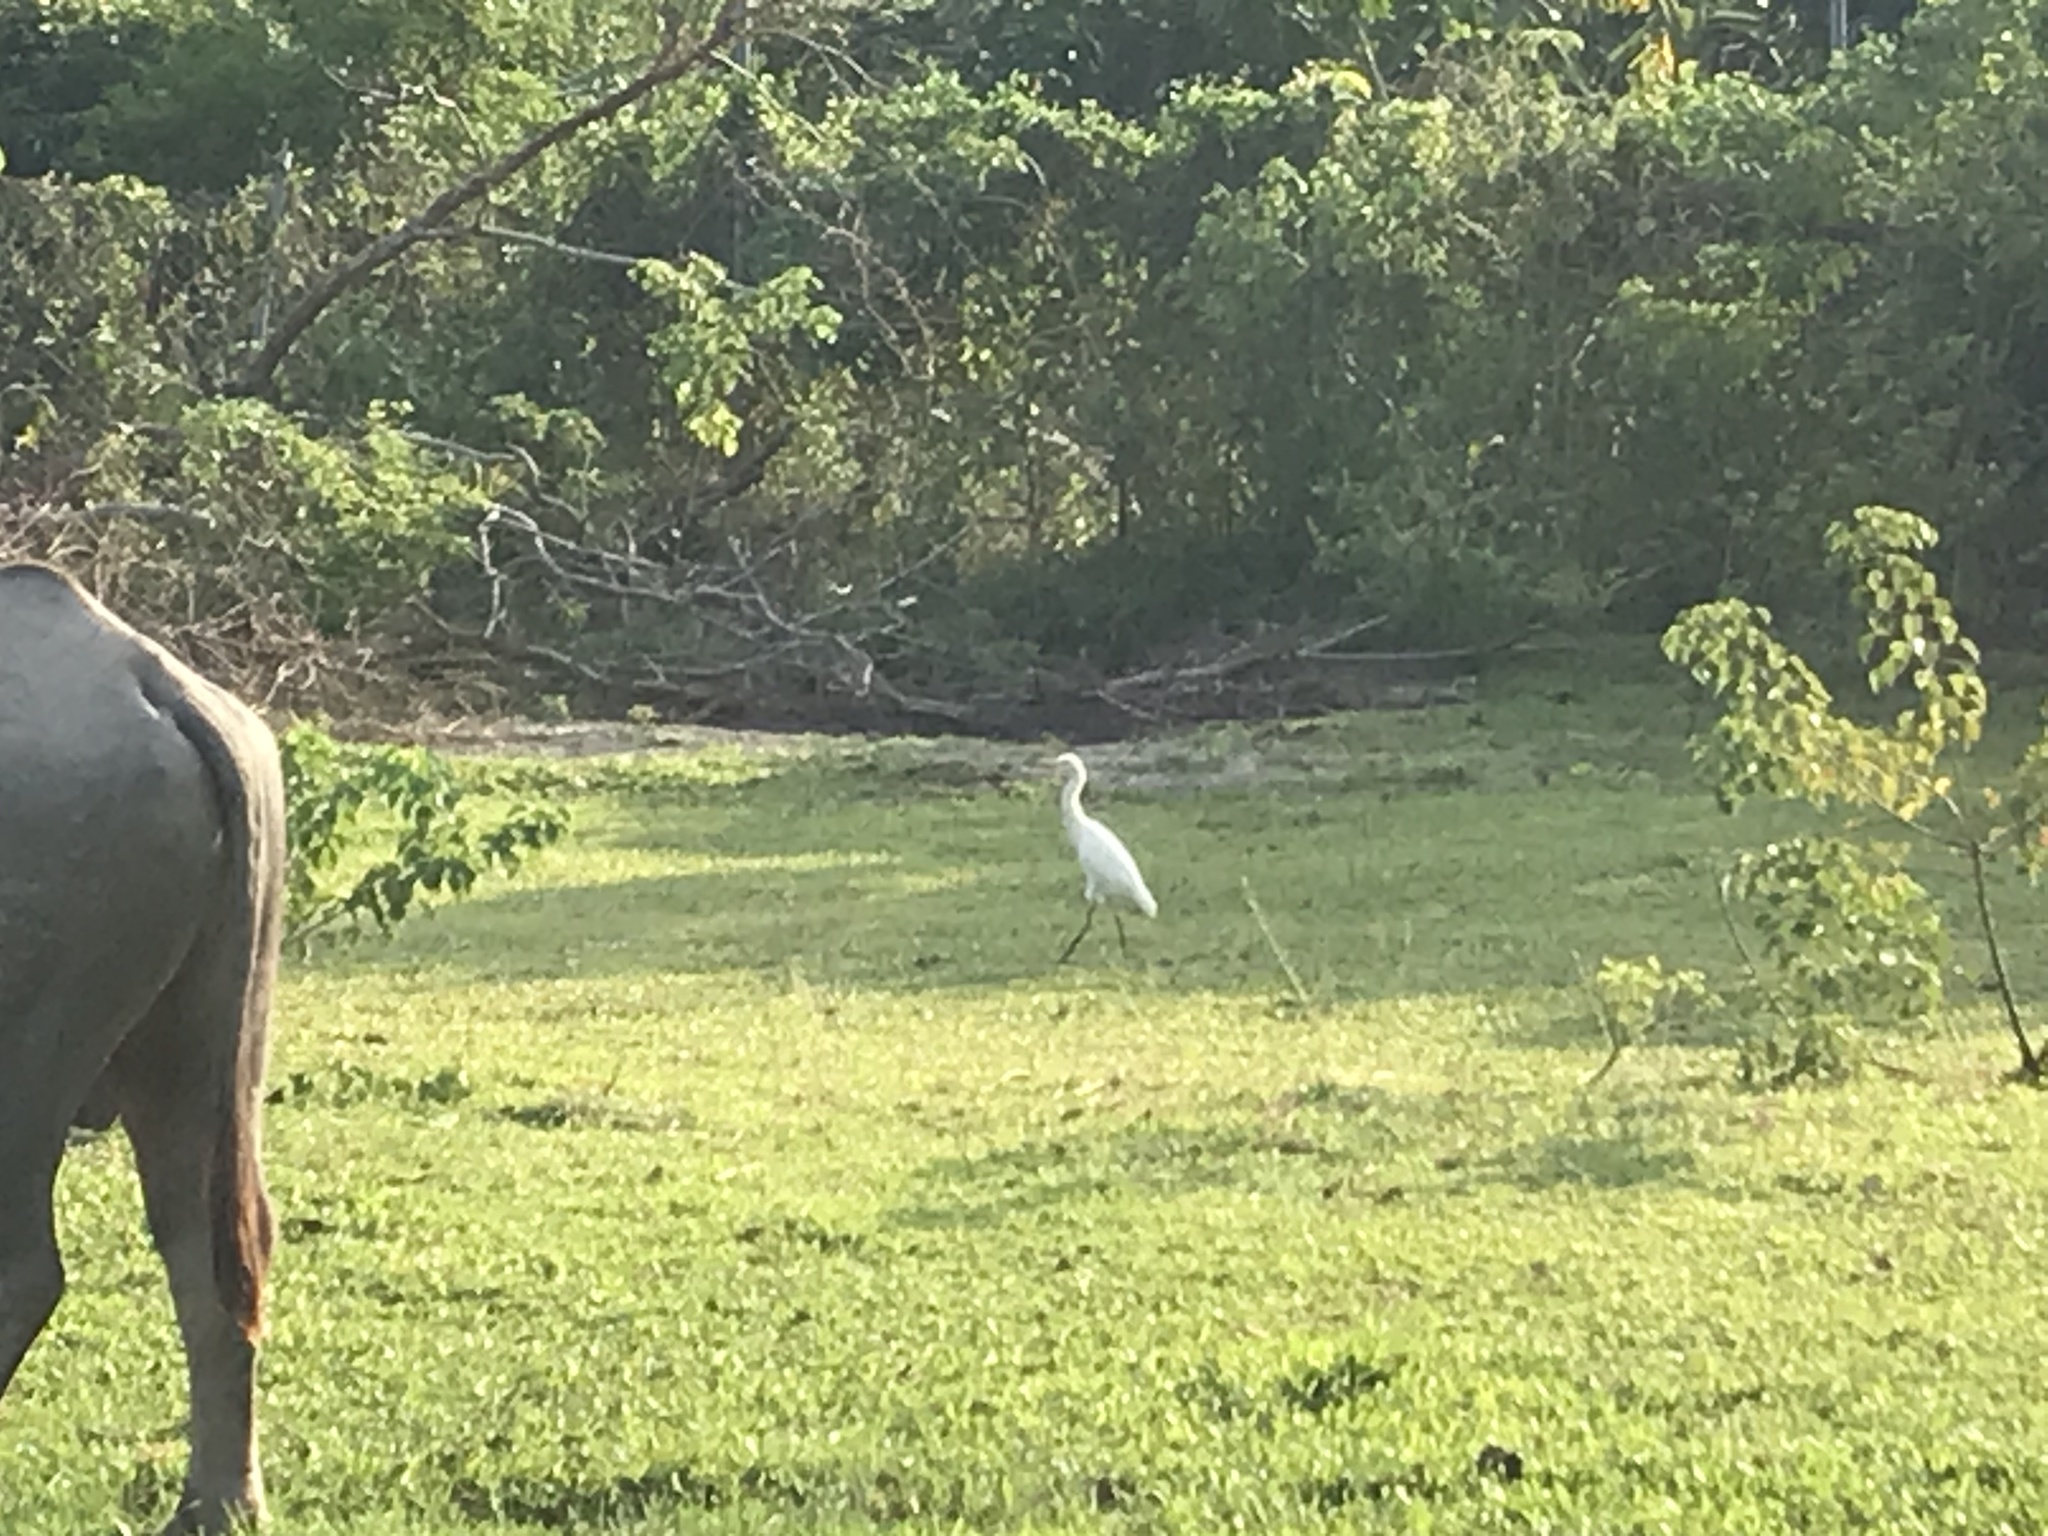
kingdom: Animalia
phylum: Chordata
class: Aves
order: Pelecaniformes
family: Ardeidae
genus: Bubulcus
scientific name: Bubulcus coromandus
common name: Eastern cattle egret
